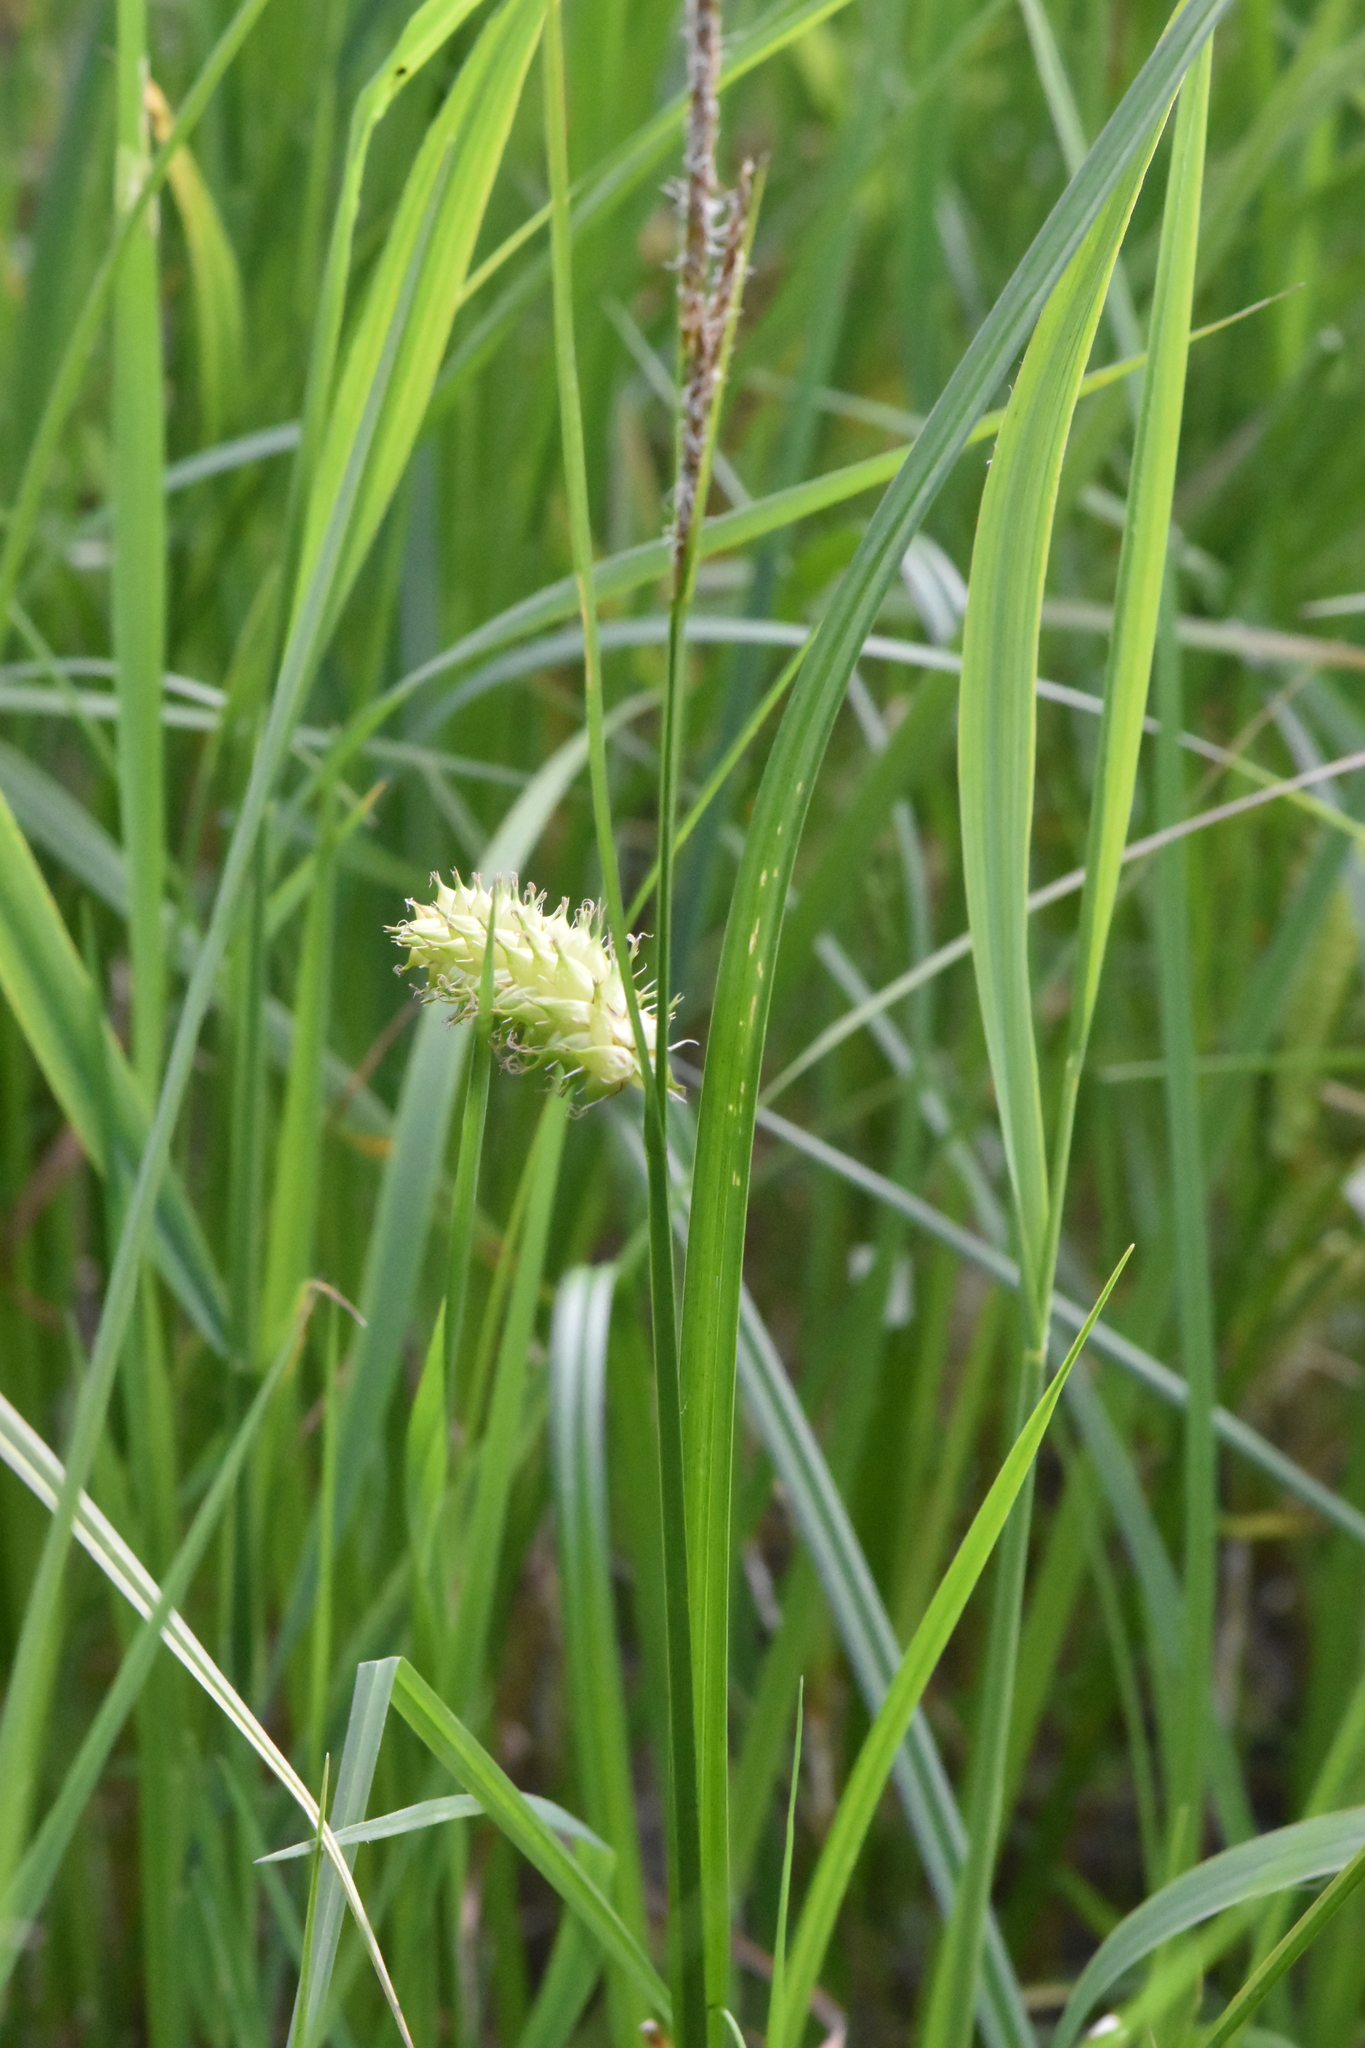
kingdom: Plantae
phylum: Tracheophyta
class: Liliopsida
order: Poales
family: Cyperaceae
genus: Carex
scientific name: Carex vesicaria
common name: Bladder-sedge
